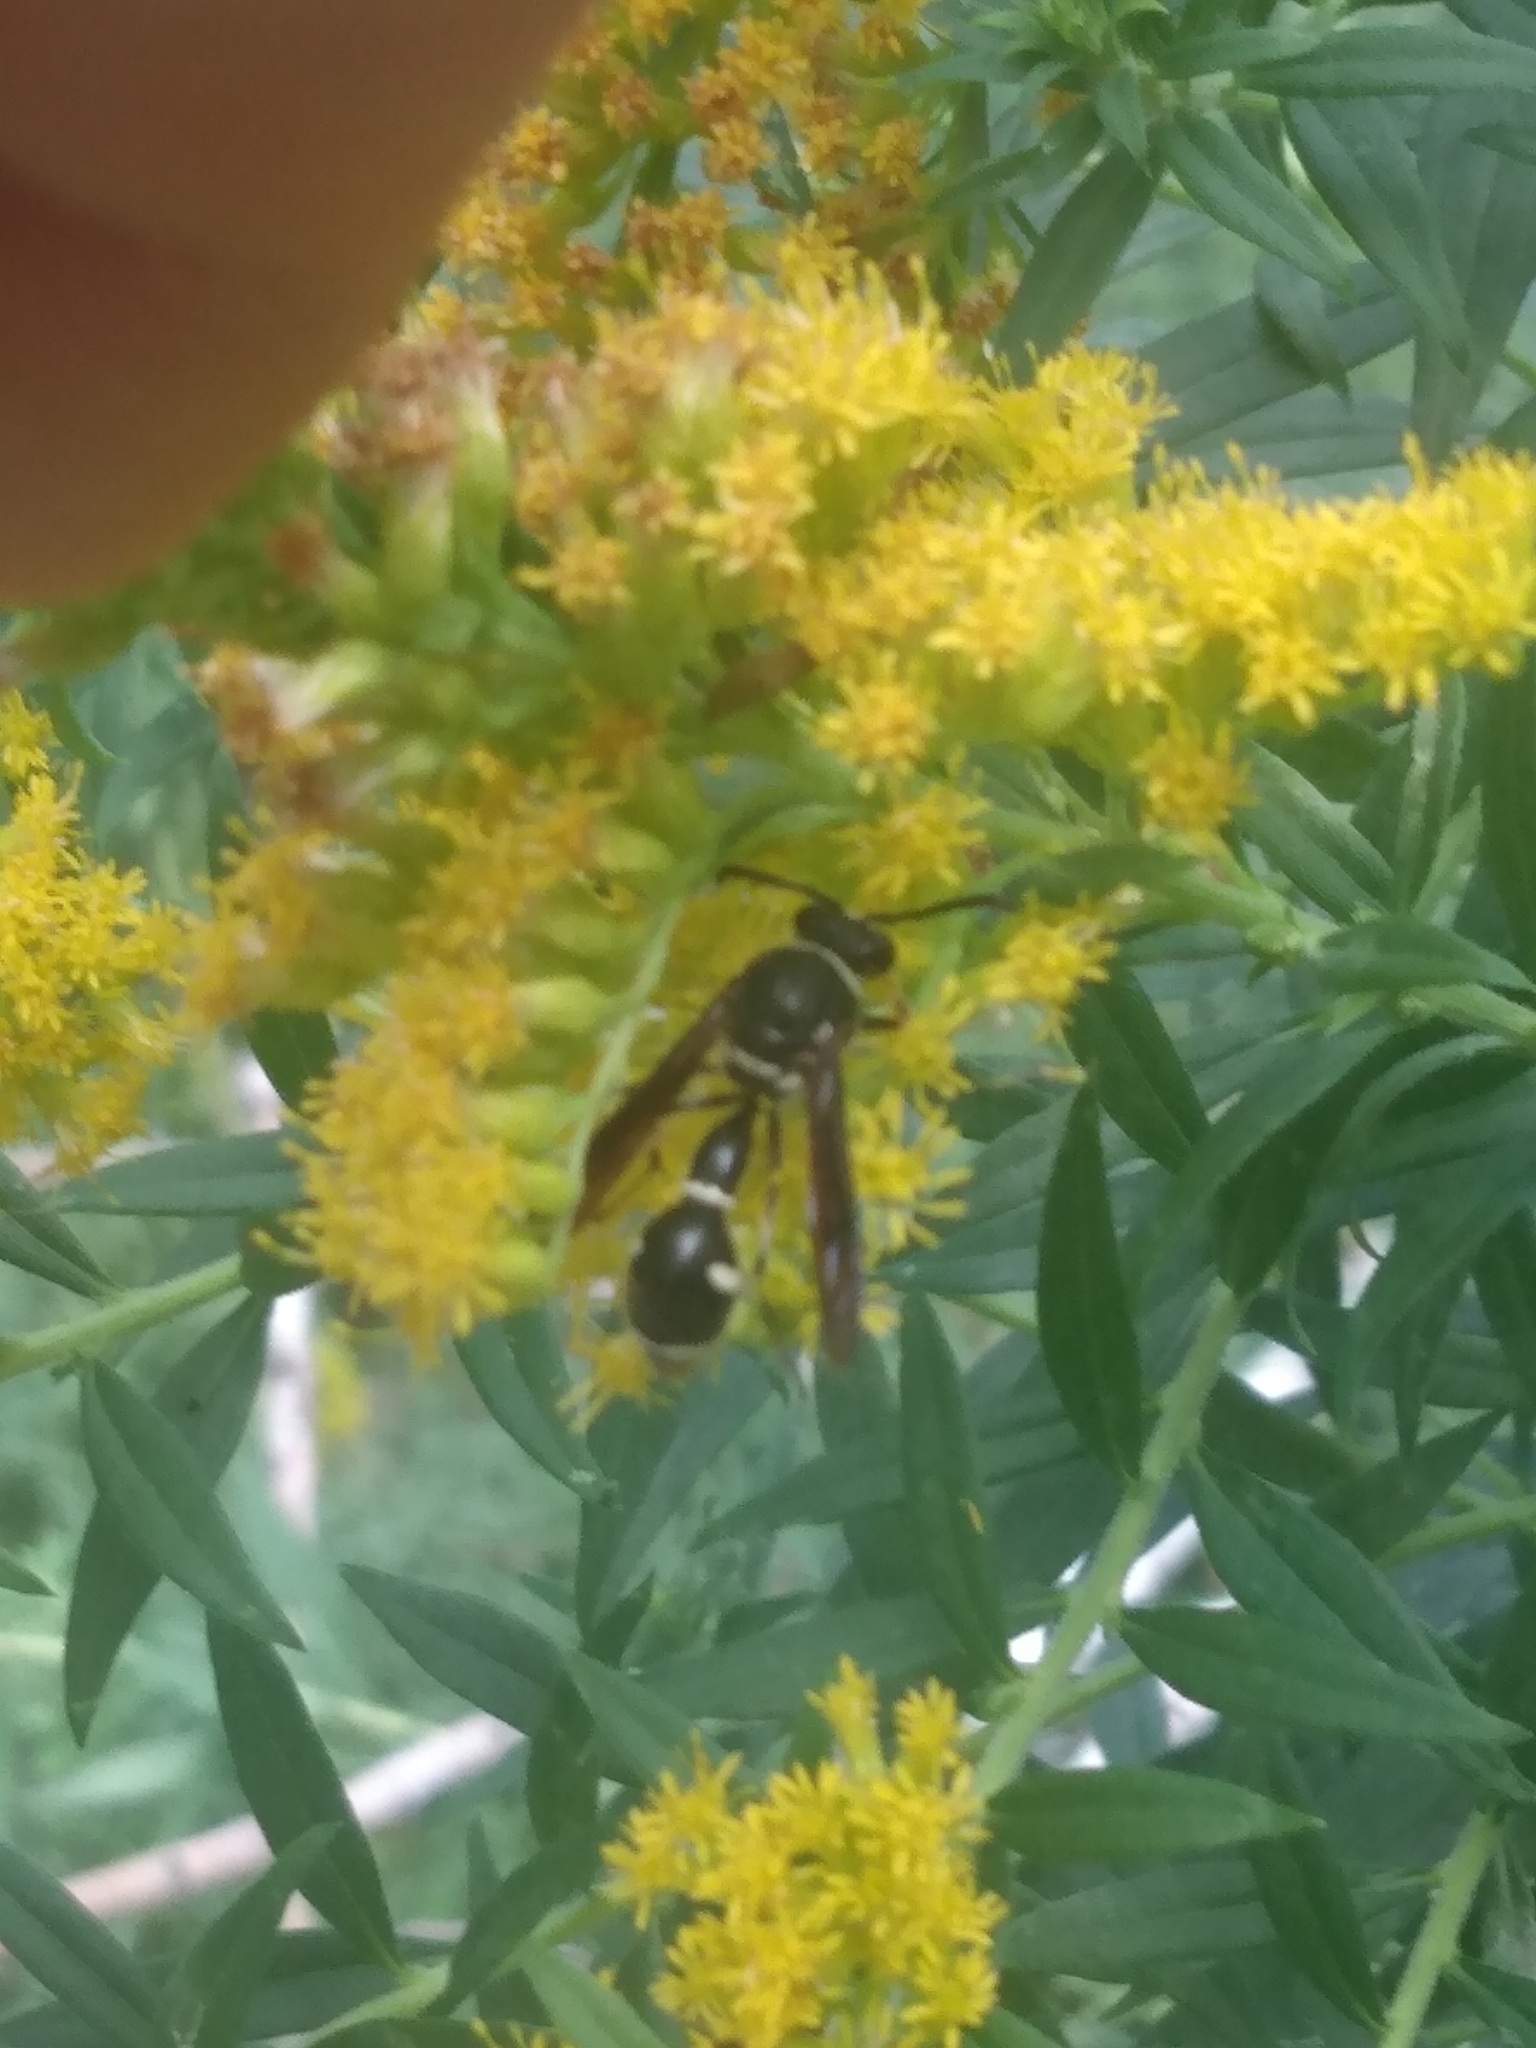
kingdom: Animalia
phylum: Arthropoda
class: Insecta
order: Hymenoptera
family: Vespidae
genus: Eumenes
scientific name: Eumenes fraternus
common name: Fraternal potter wasp
